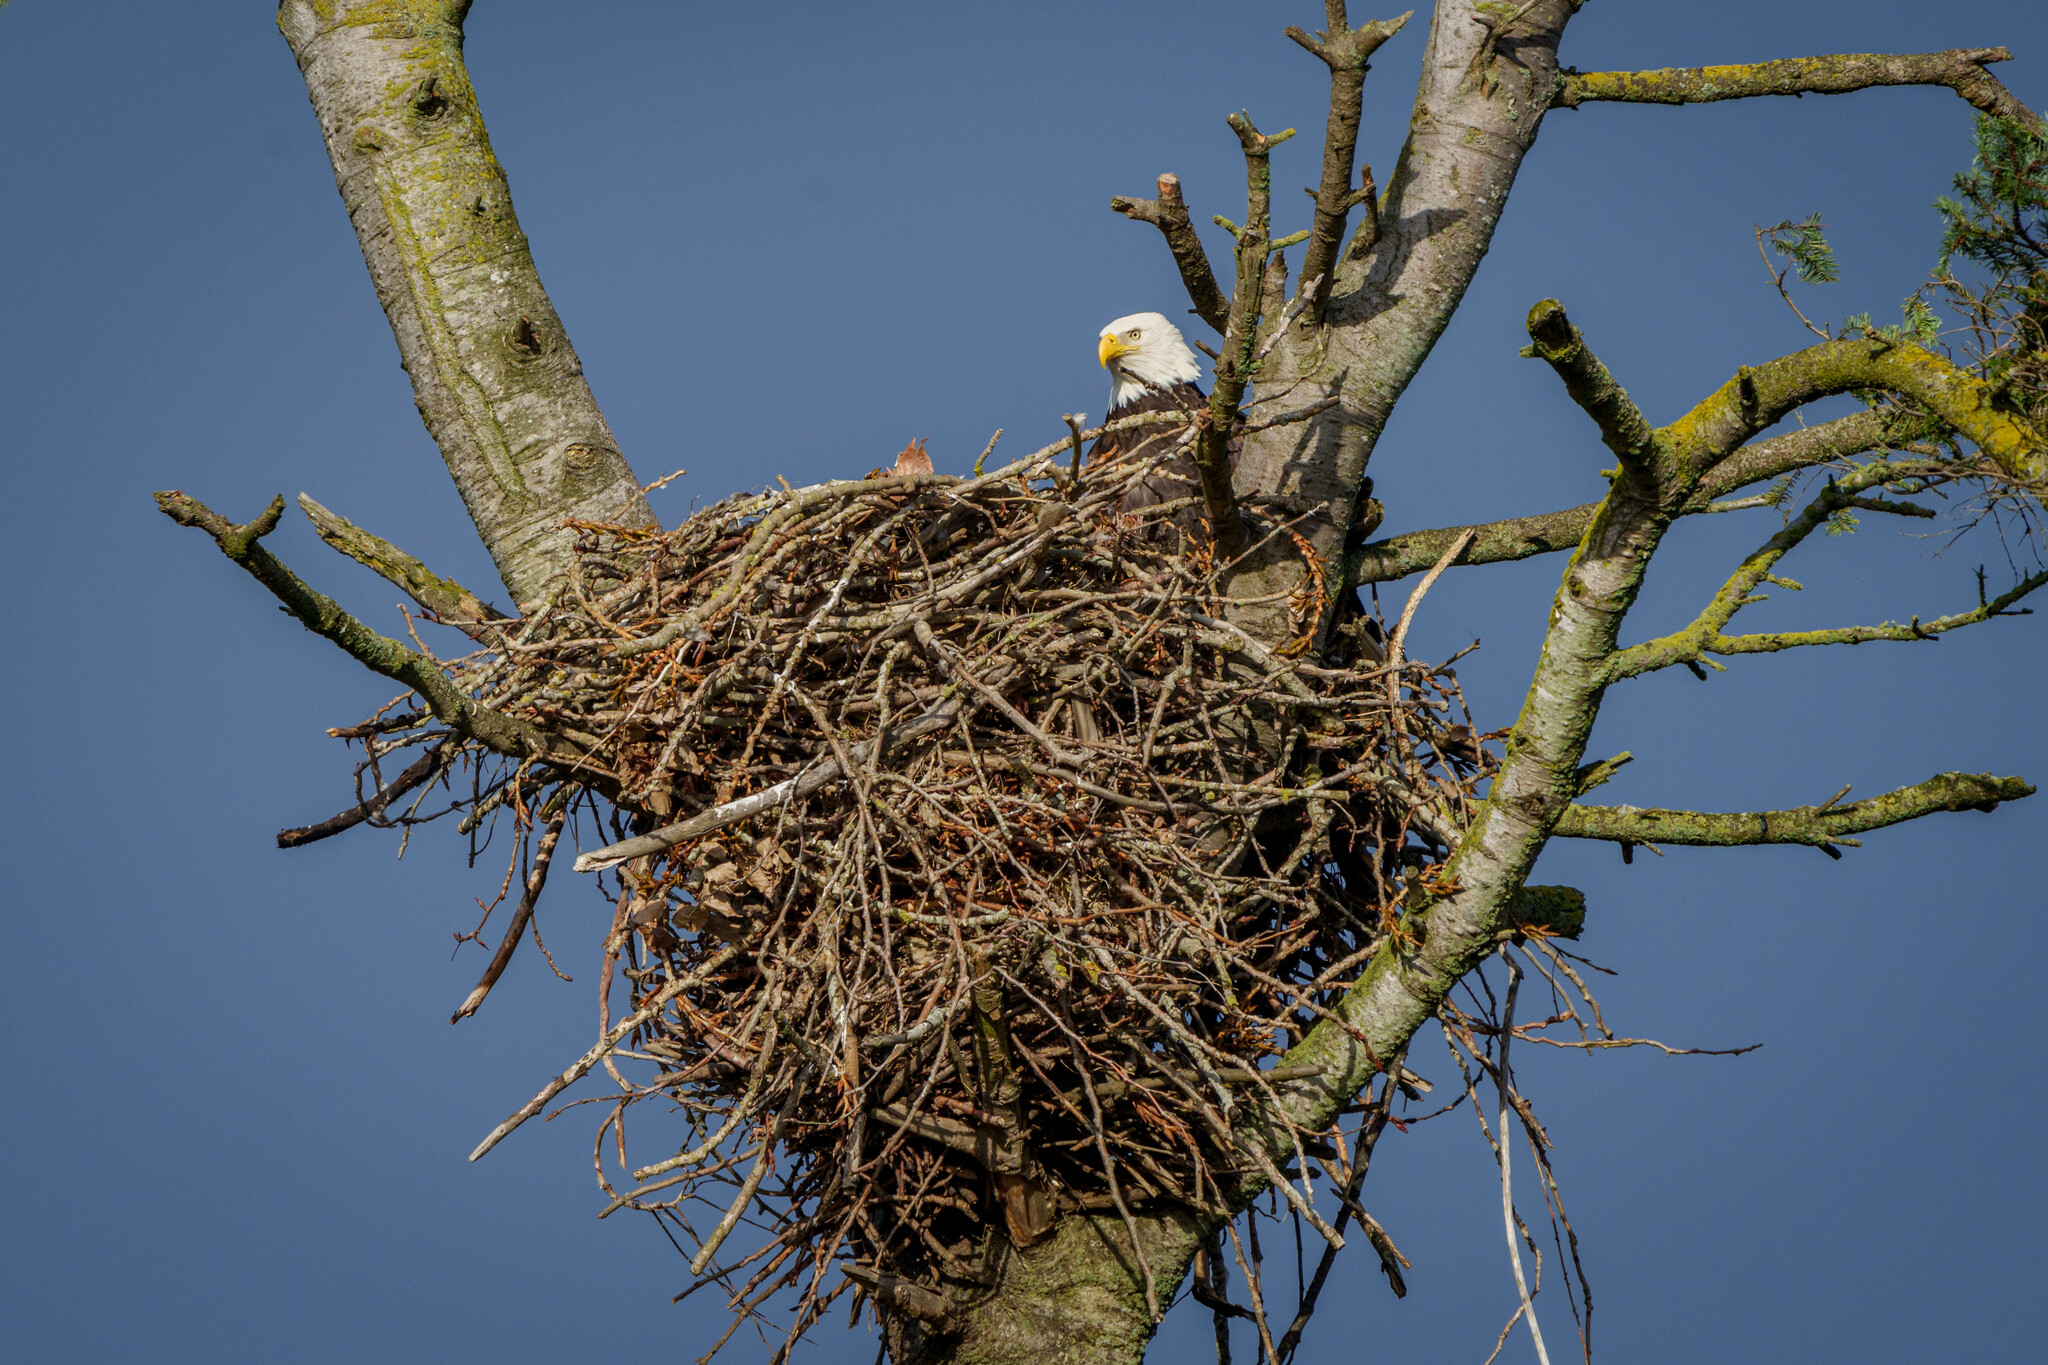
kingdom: Animalia
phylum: Chordata
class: Aves
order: Accipitriformes
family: Accipitridae
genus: Haliaeetus
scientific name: Haliaeetus leucocephalus
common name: Bald eagle
